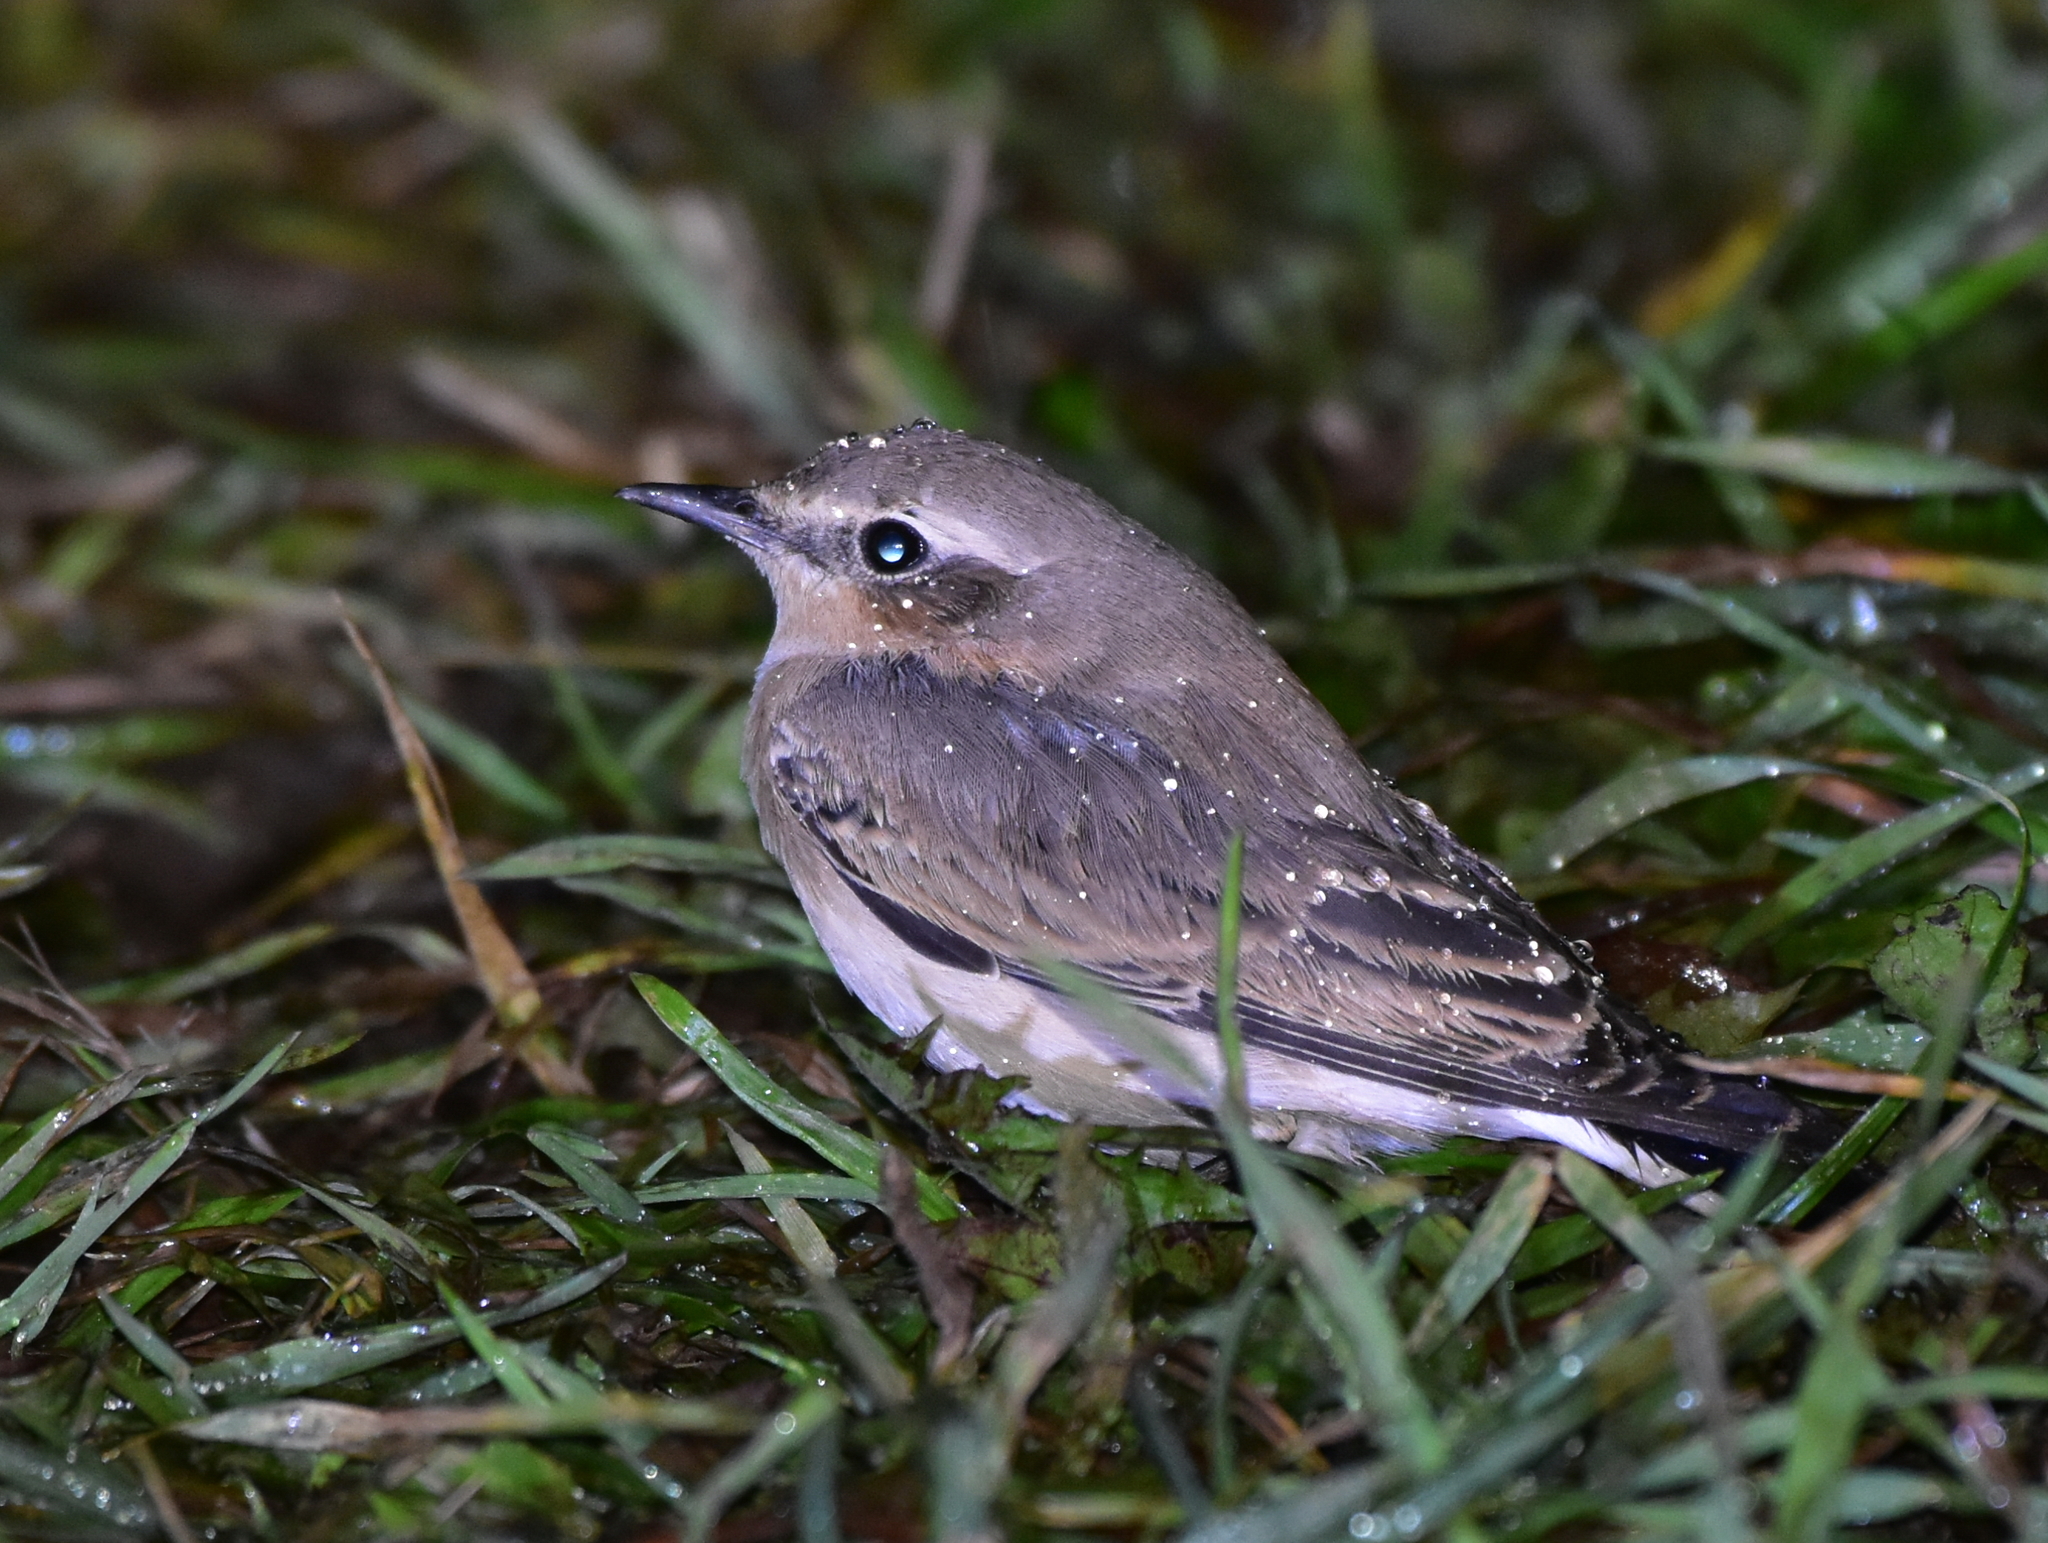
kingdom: Animalia
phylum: Chordata
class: Aves
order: Passeriformes
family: Muscicapidae
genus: Oenanthe
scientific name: Oenanthe oenanthe
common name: Northern wheatear
